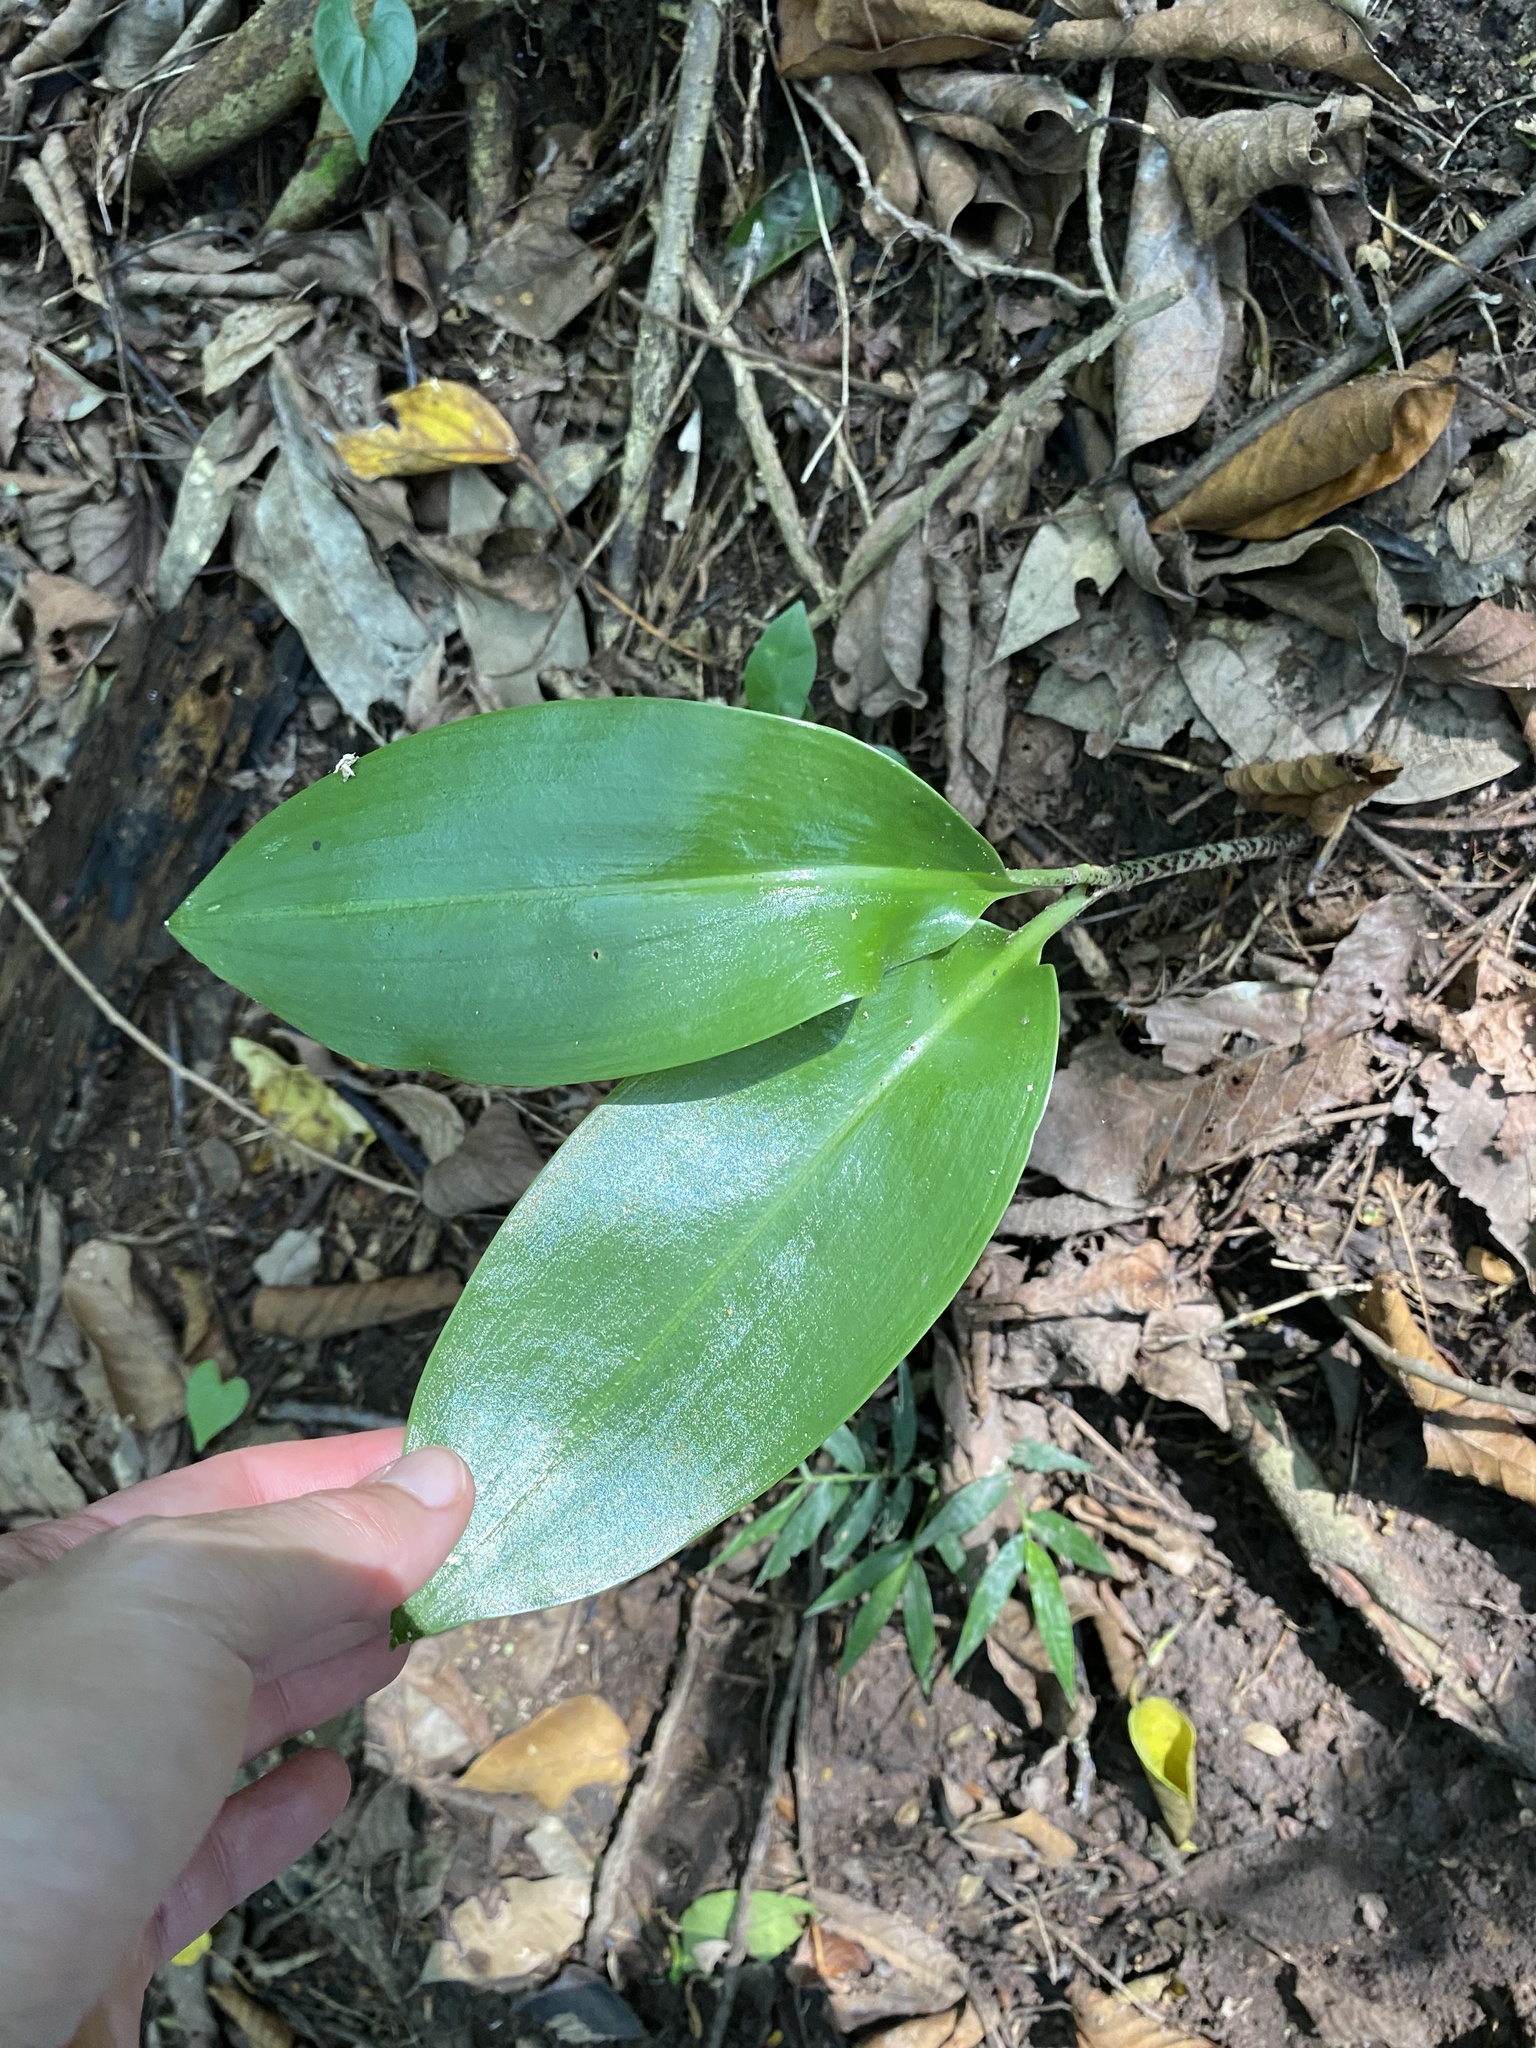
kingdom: Plantae
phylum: Tracheophyta
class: Liliopsida
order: Asparagales
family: Amaryllidaceae
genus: Scadoxus
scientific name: Scadoxus puniceus
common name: Royal-paintbrush
